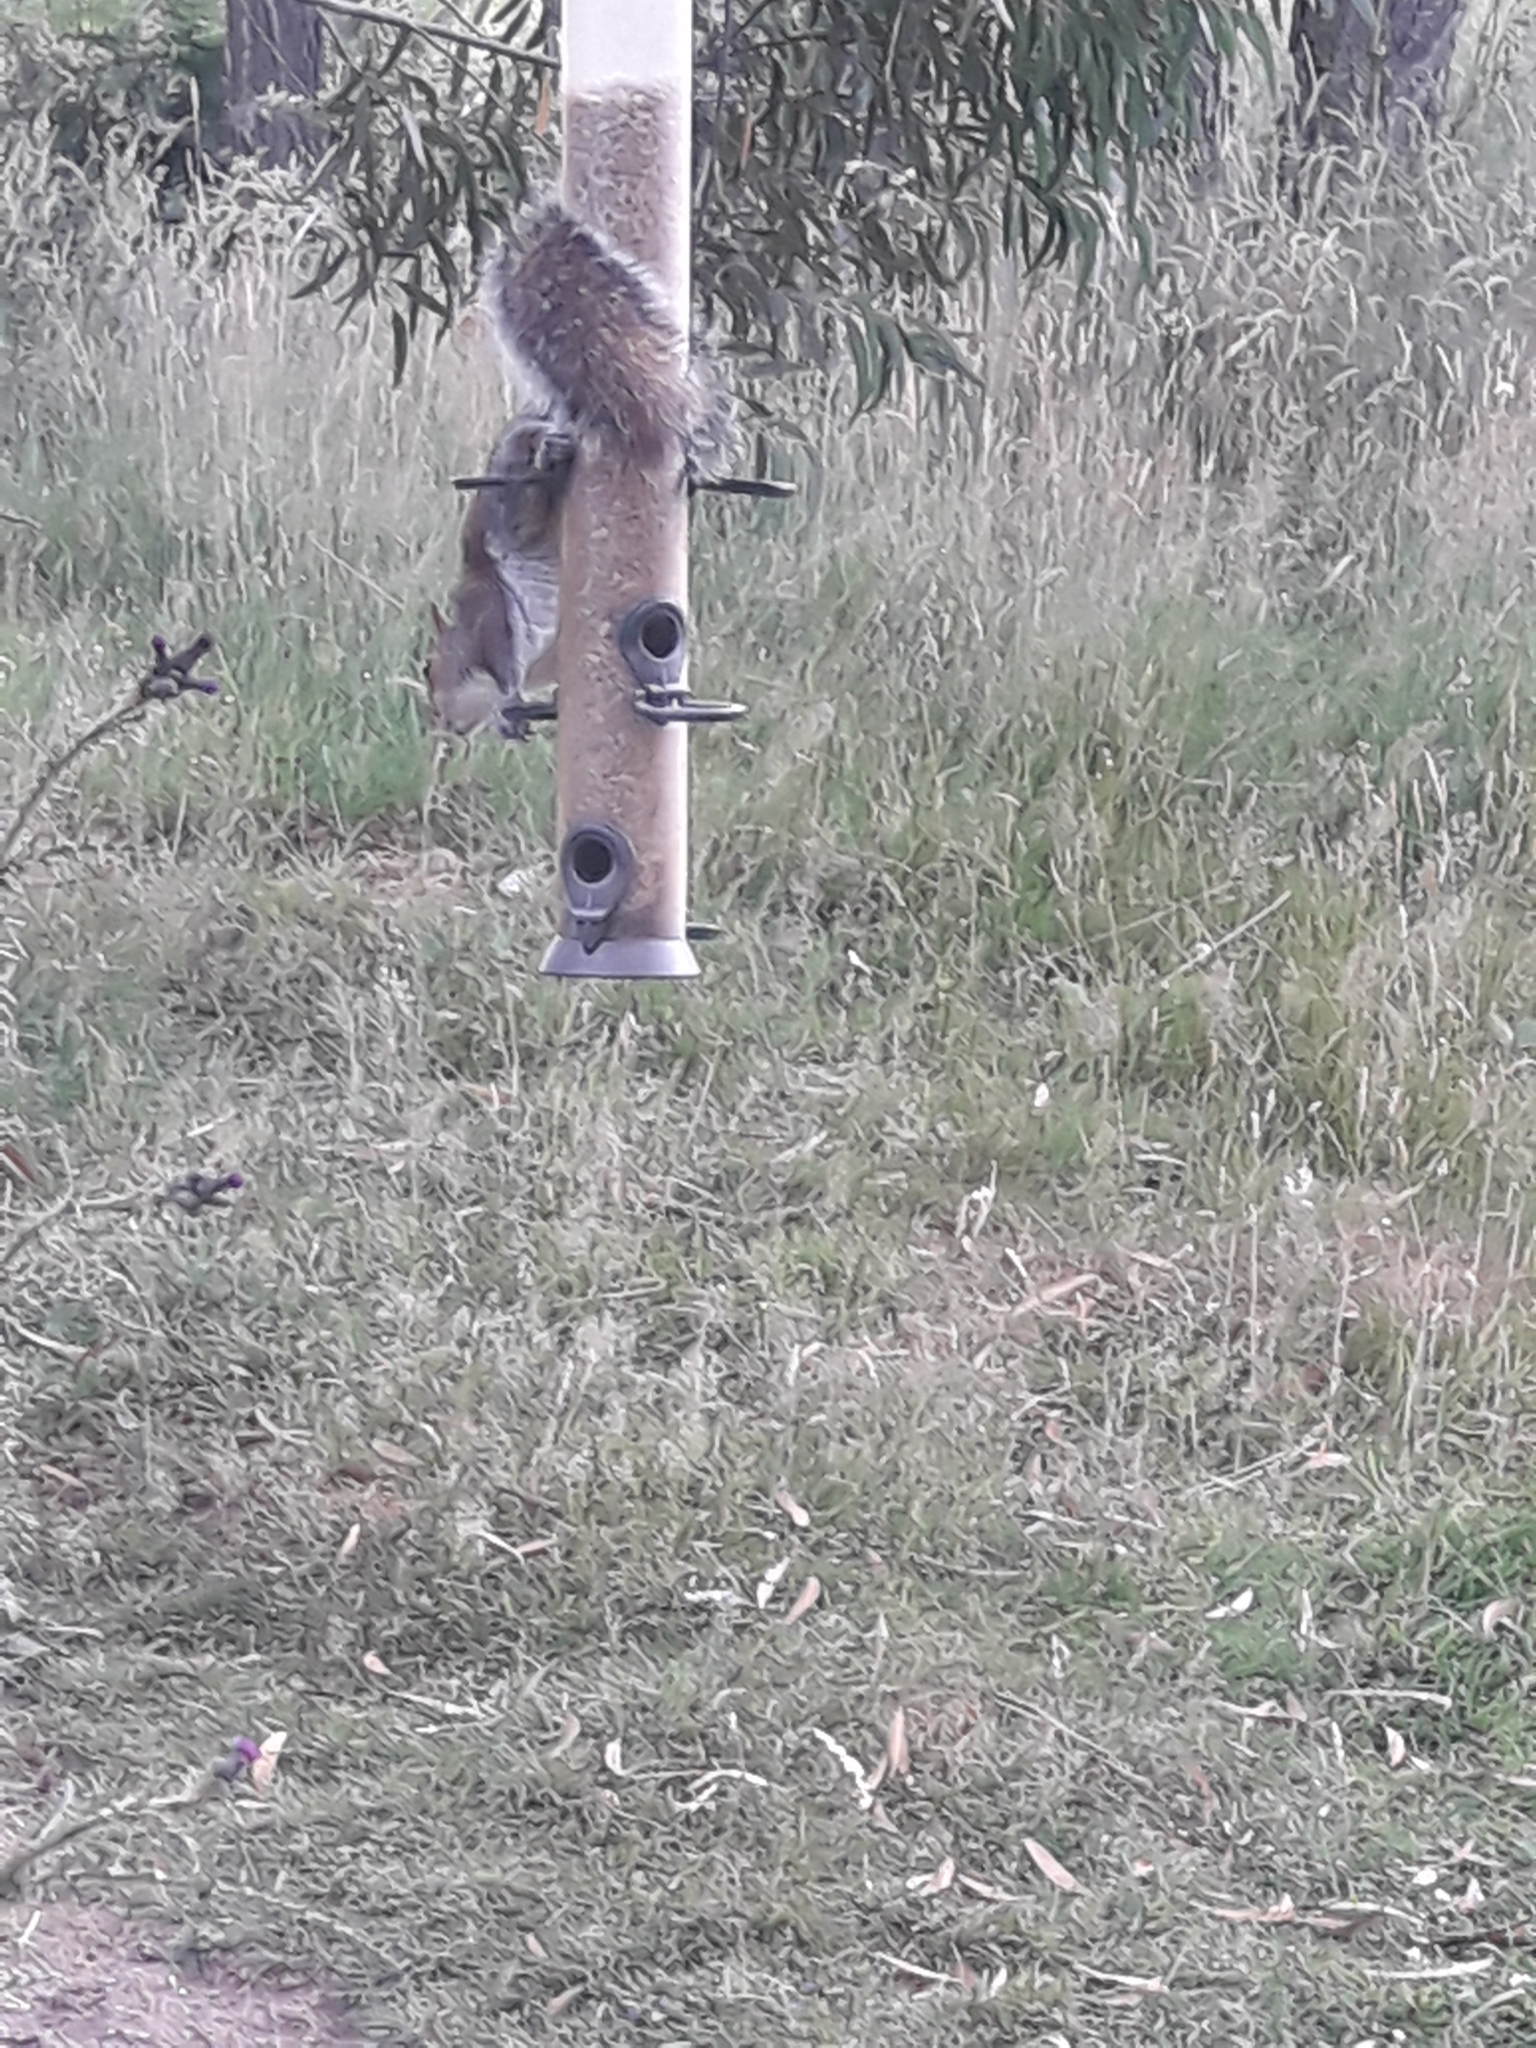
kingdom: Animalia
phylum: Chordata
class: Mammalia
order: Rodentia
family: Sciuridae
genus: Sciurus
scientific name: Sciurus carolinensis
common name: Eastern gray squirrel
